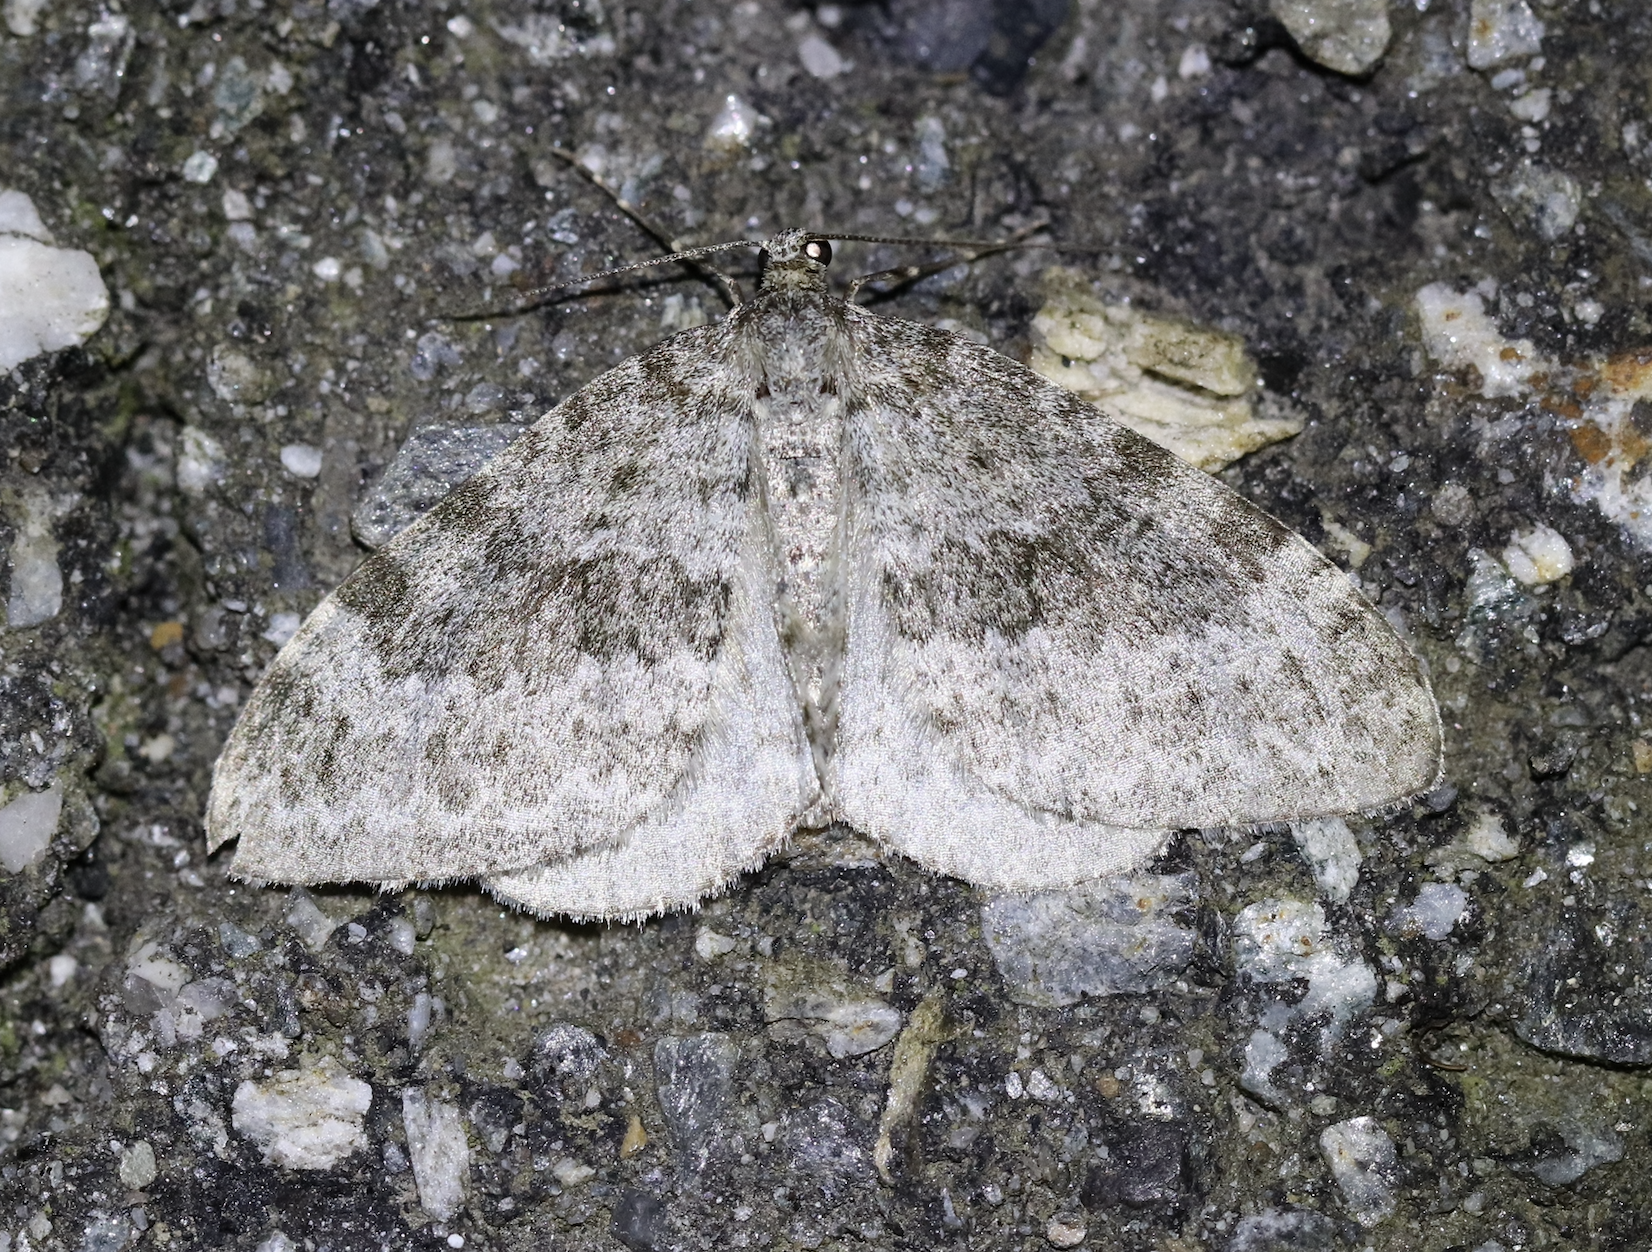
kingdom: Animalia
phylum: Arthropoda
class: Insecta
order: Lepidoptera
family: Geometridae
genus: Entephria
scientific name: Entephria caesiata
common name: Grey mountain moth
